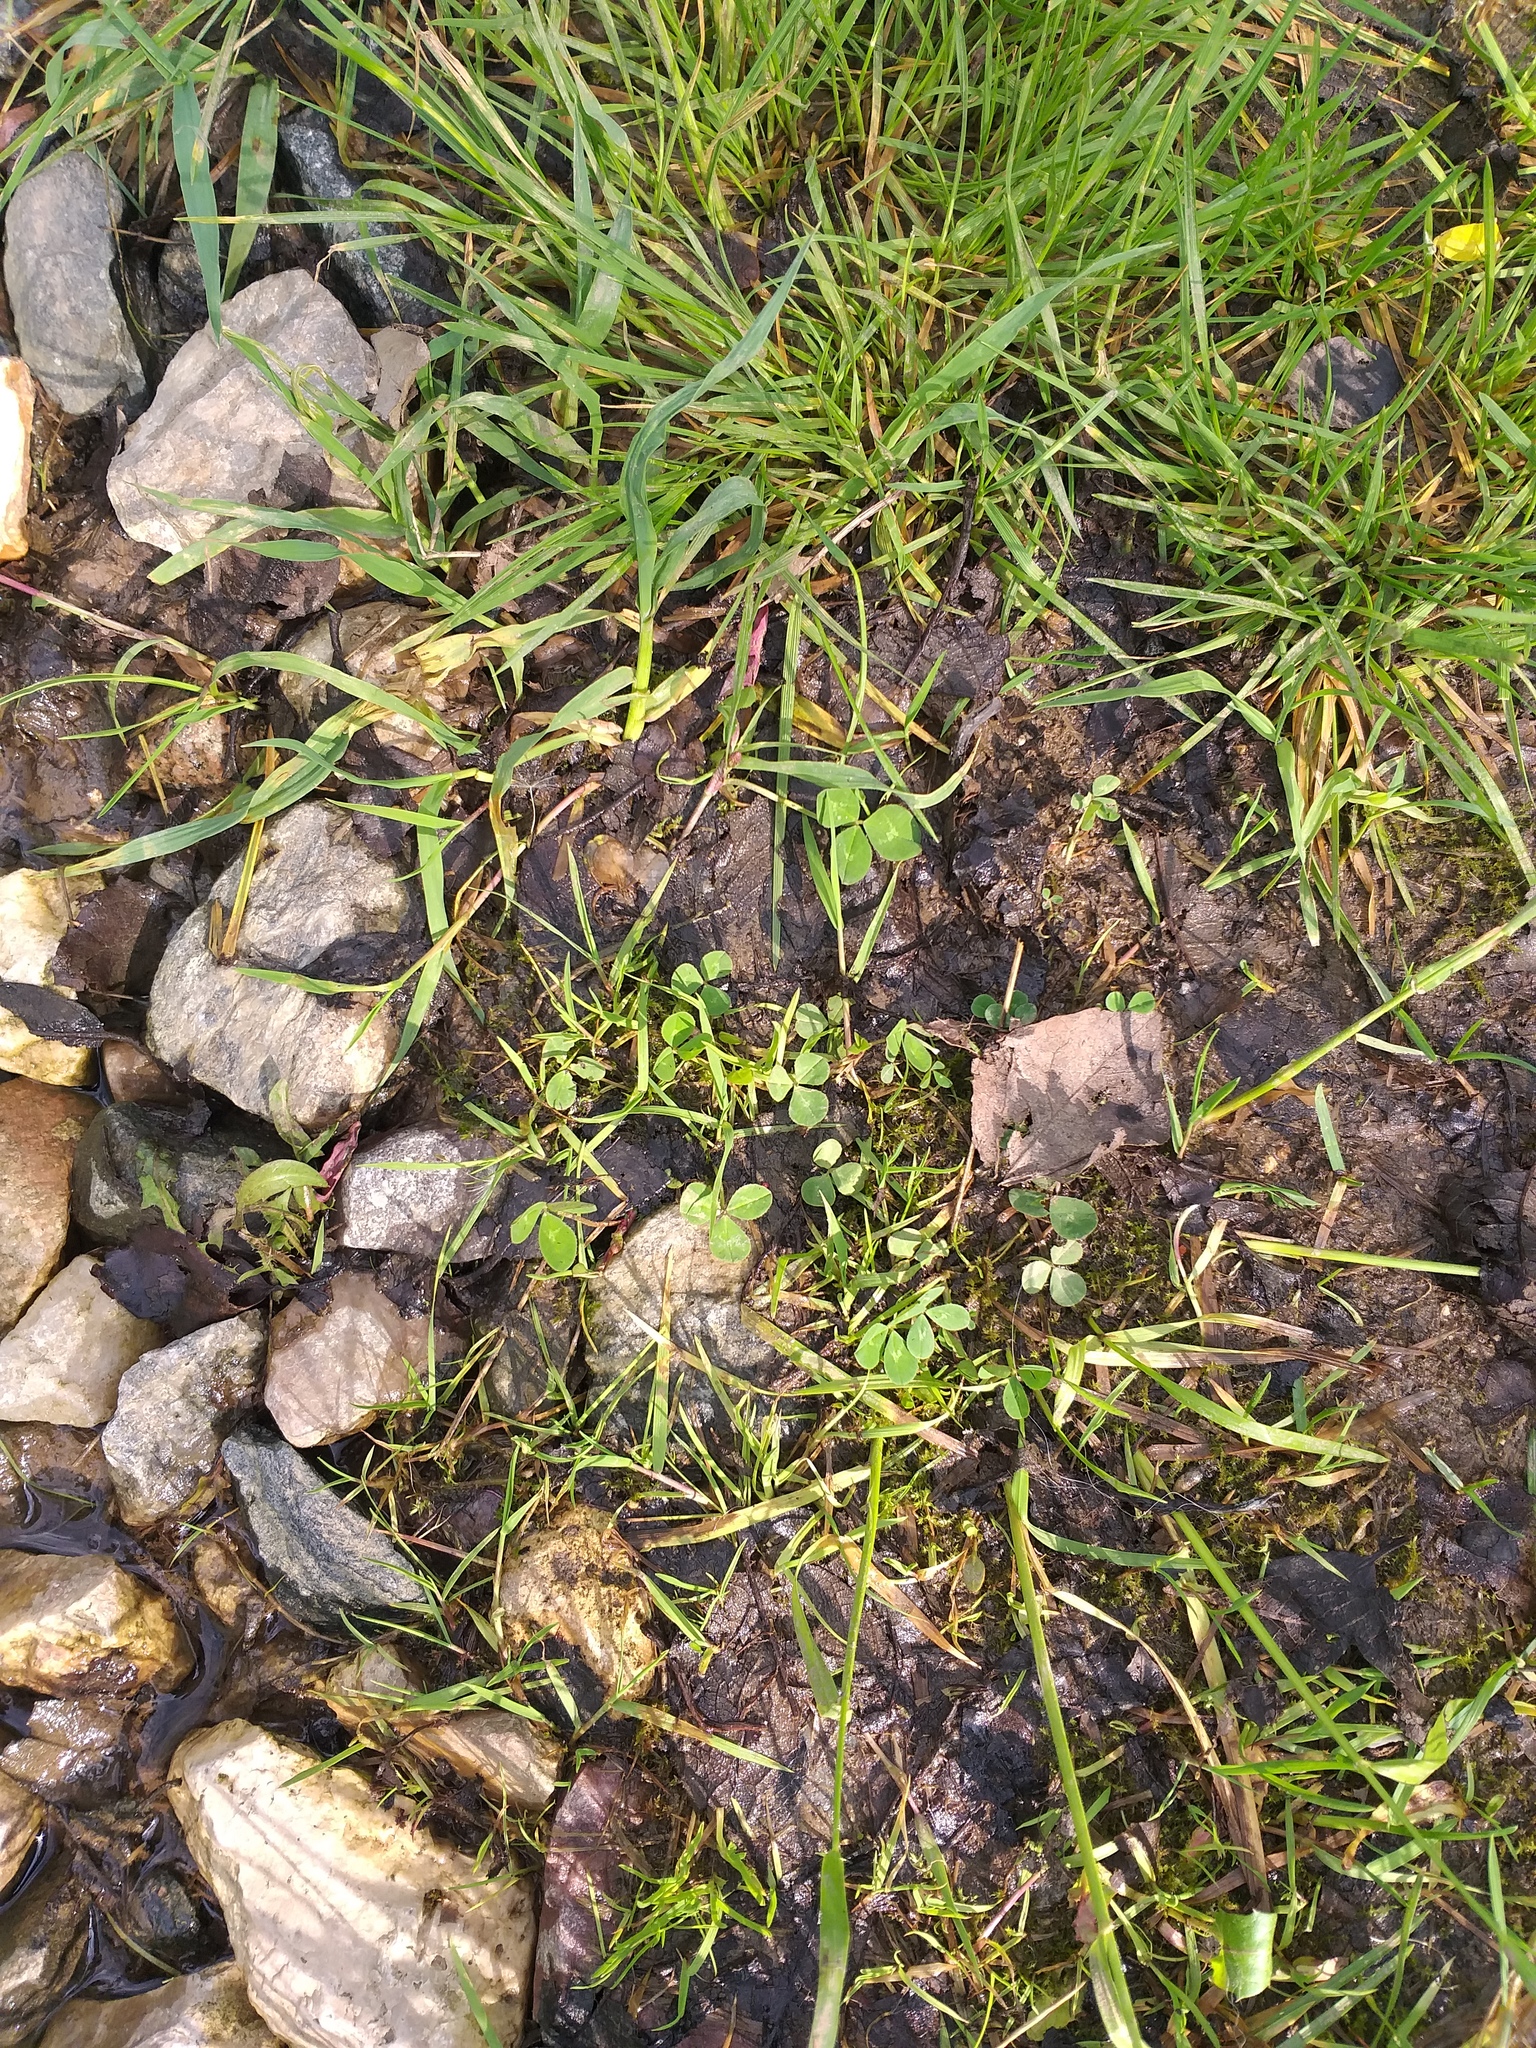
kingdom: Plantae
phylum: Tracheophyta
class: Magnoliopsida
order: Fabales
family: Fabaceae
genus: Trifolium
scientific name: Trifolium repens
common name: White clover
